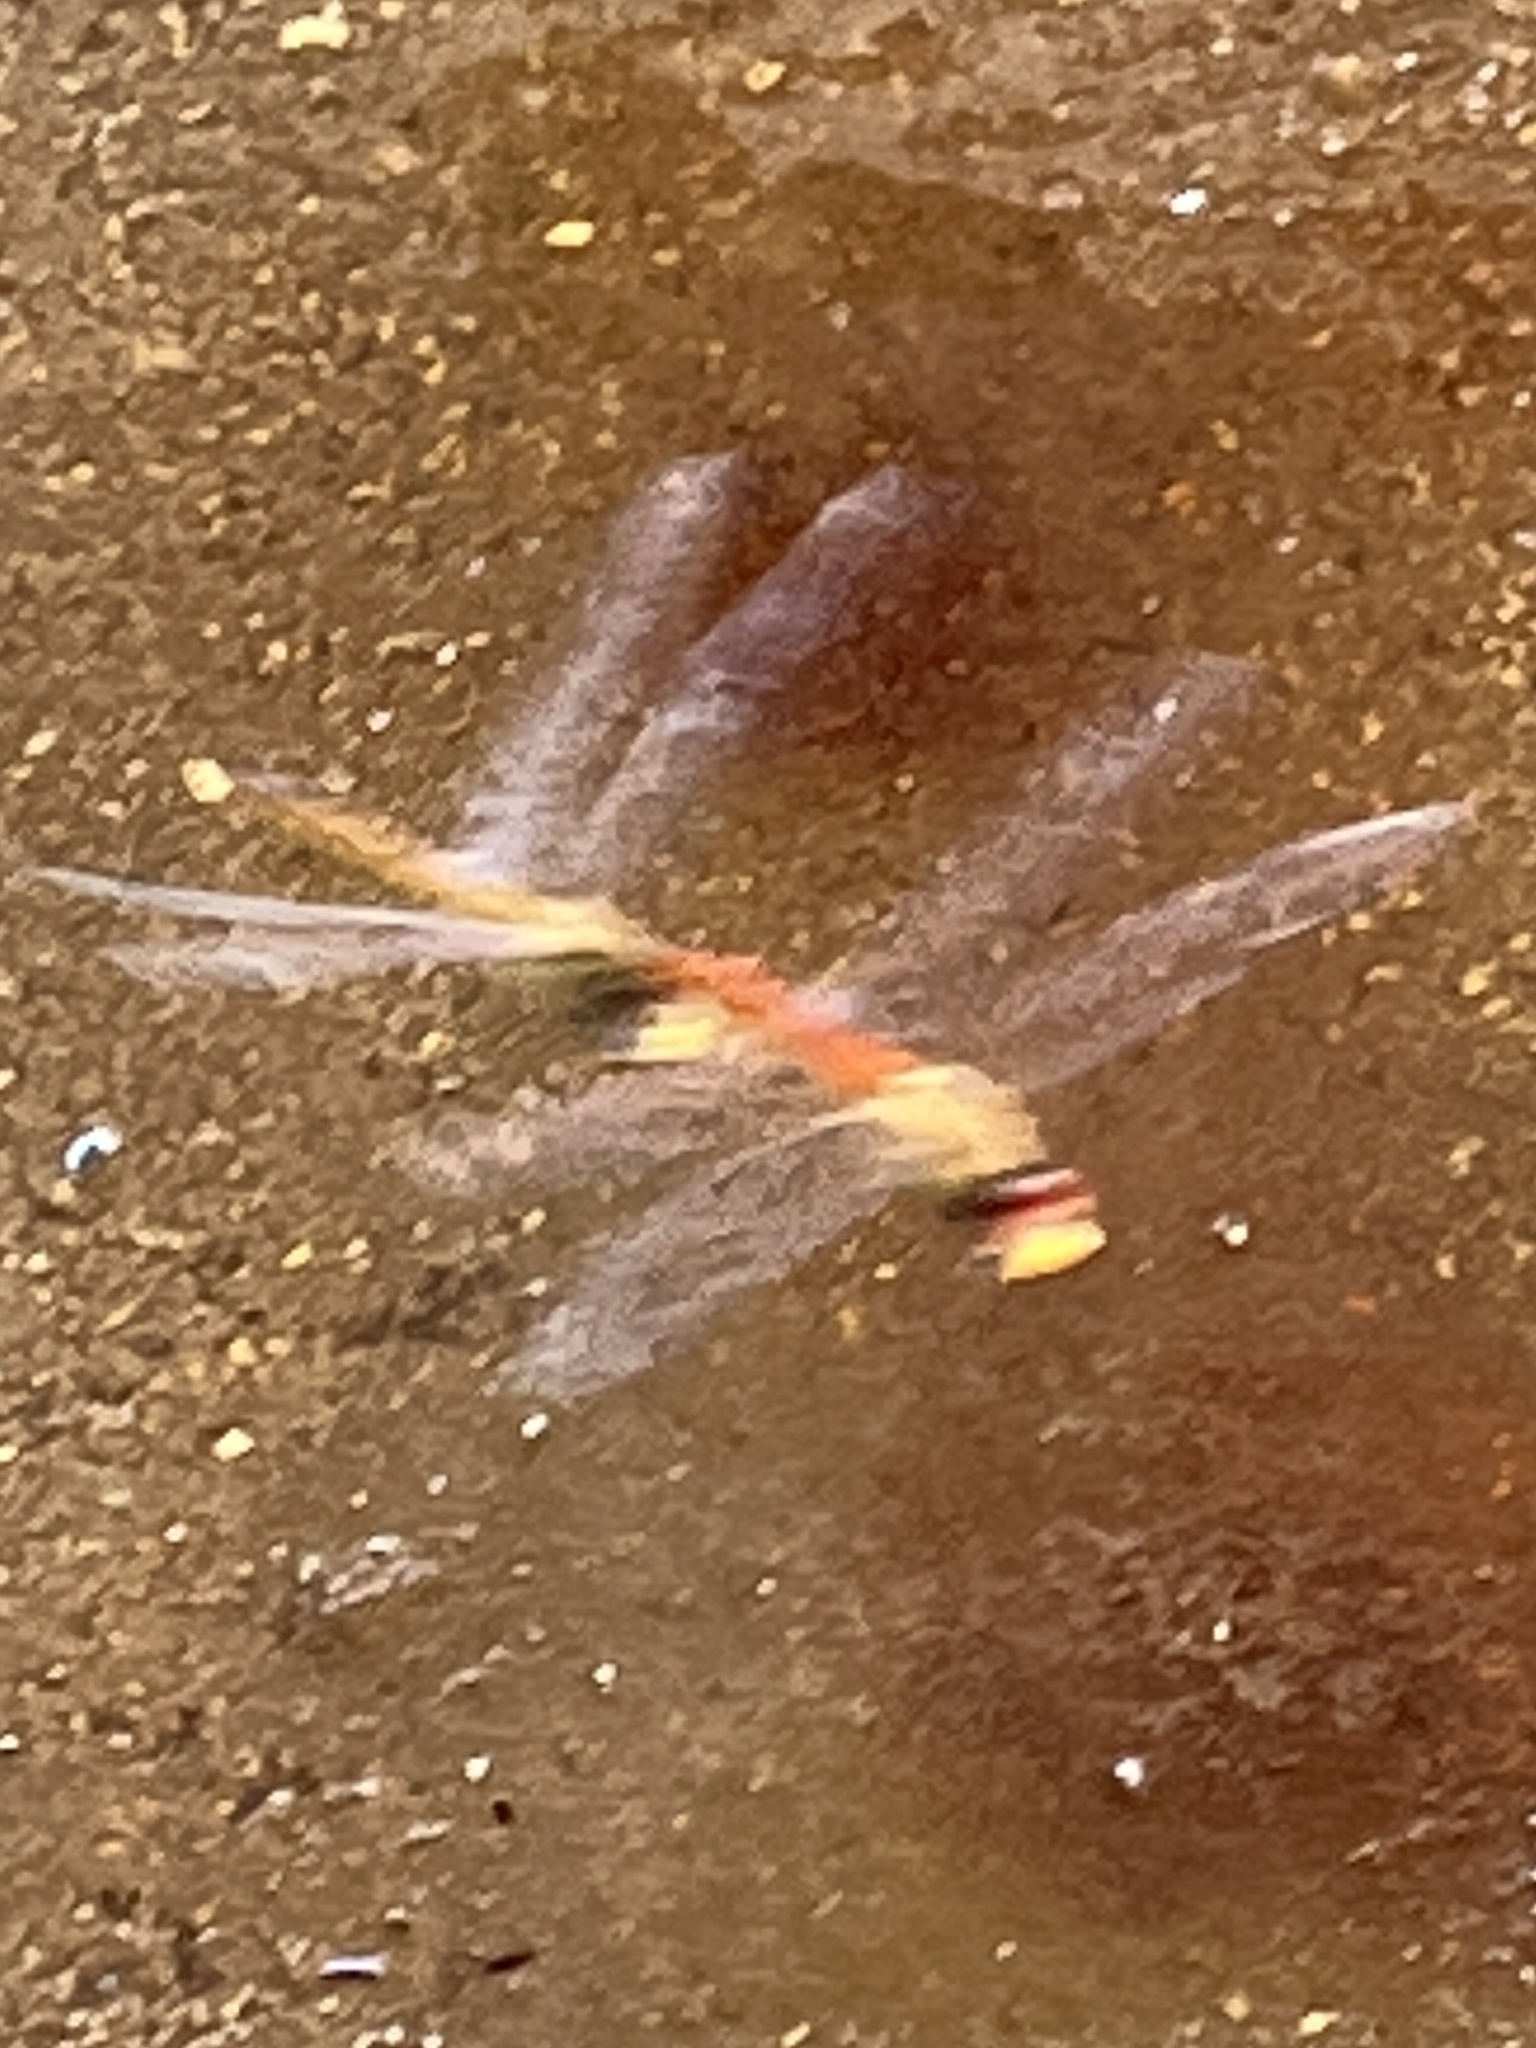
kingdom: Animalia
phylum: Arthropoda
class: Insecta
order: Odonata
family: Libellulidae
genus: Pantala
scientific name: Pantala flavescens
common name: Wandering glider
